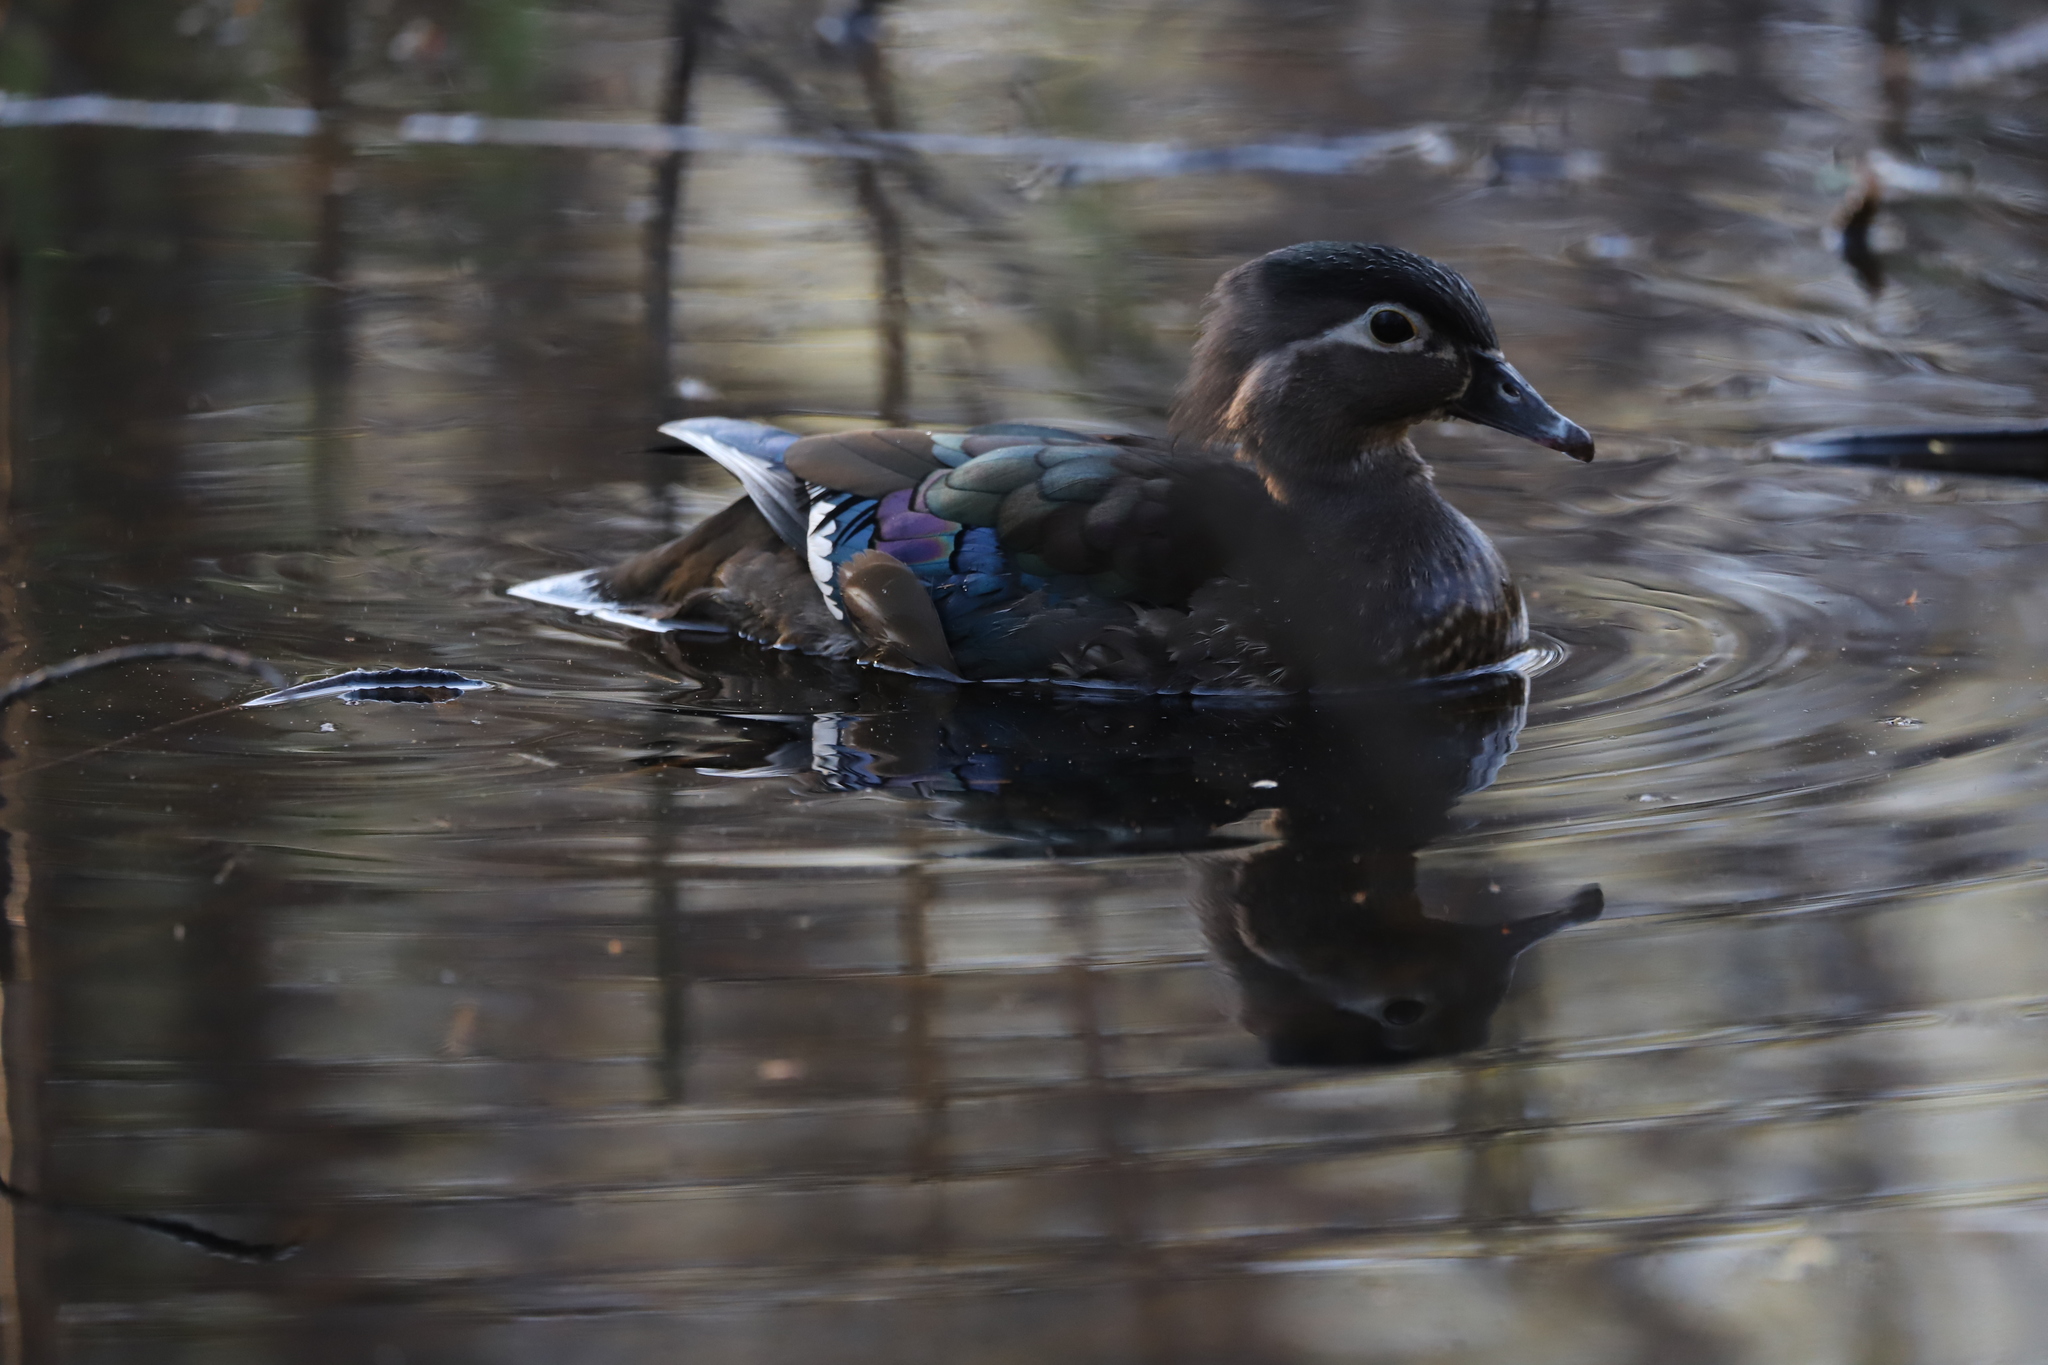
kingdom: Animalia
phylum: Chordata
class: Aves
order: Anseriformes
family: Anatidae
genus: Aix
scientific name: Aix sponsa
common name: Wood duck
